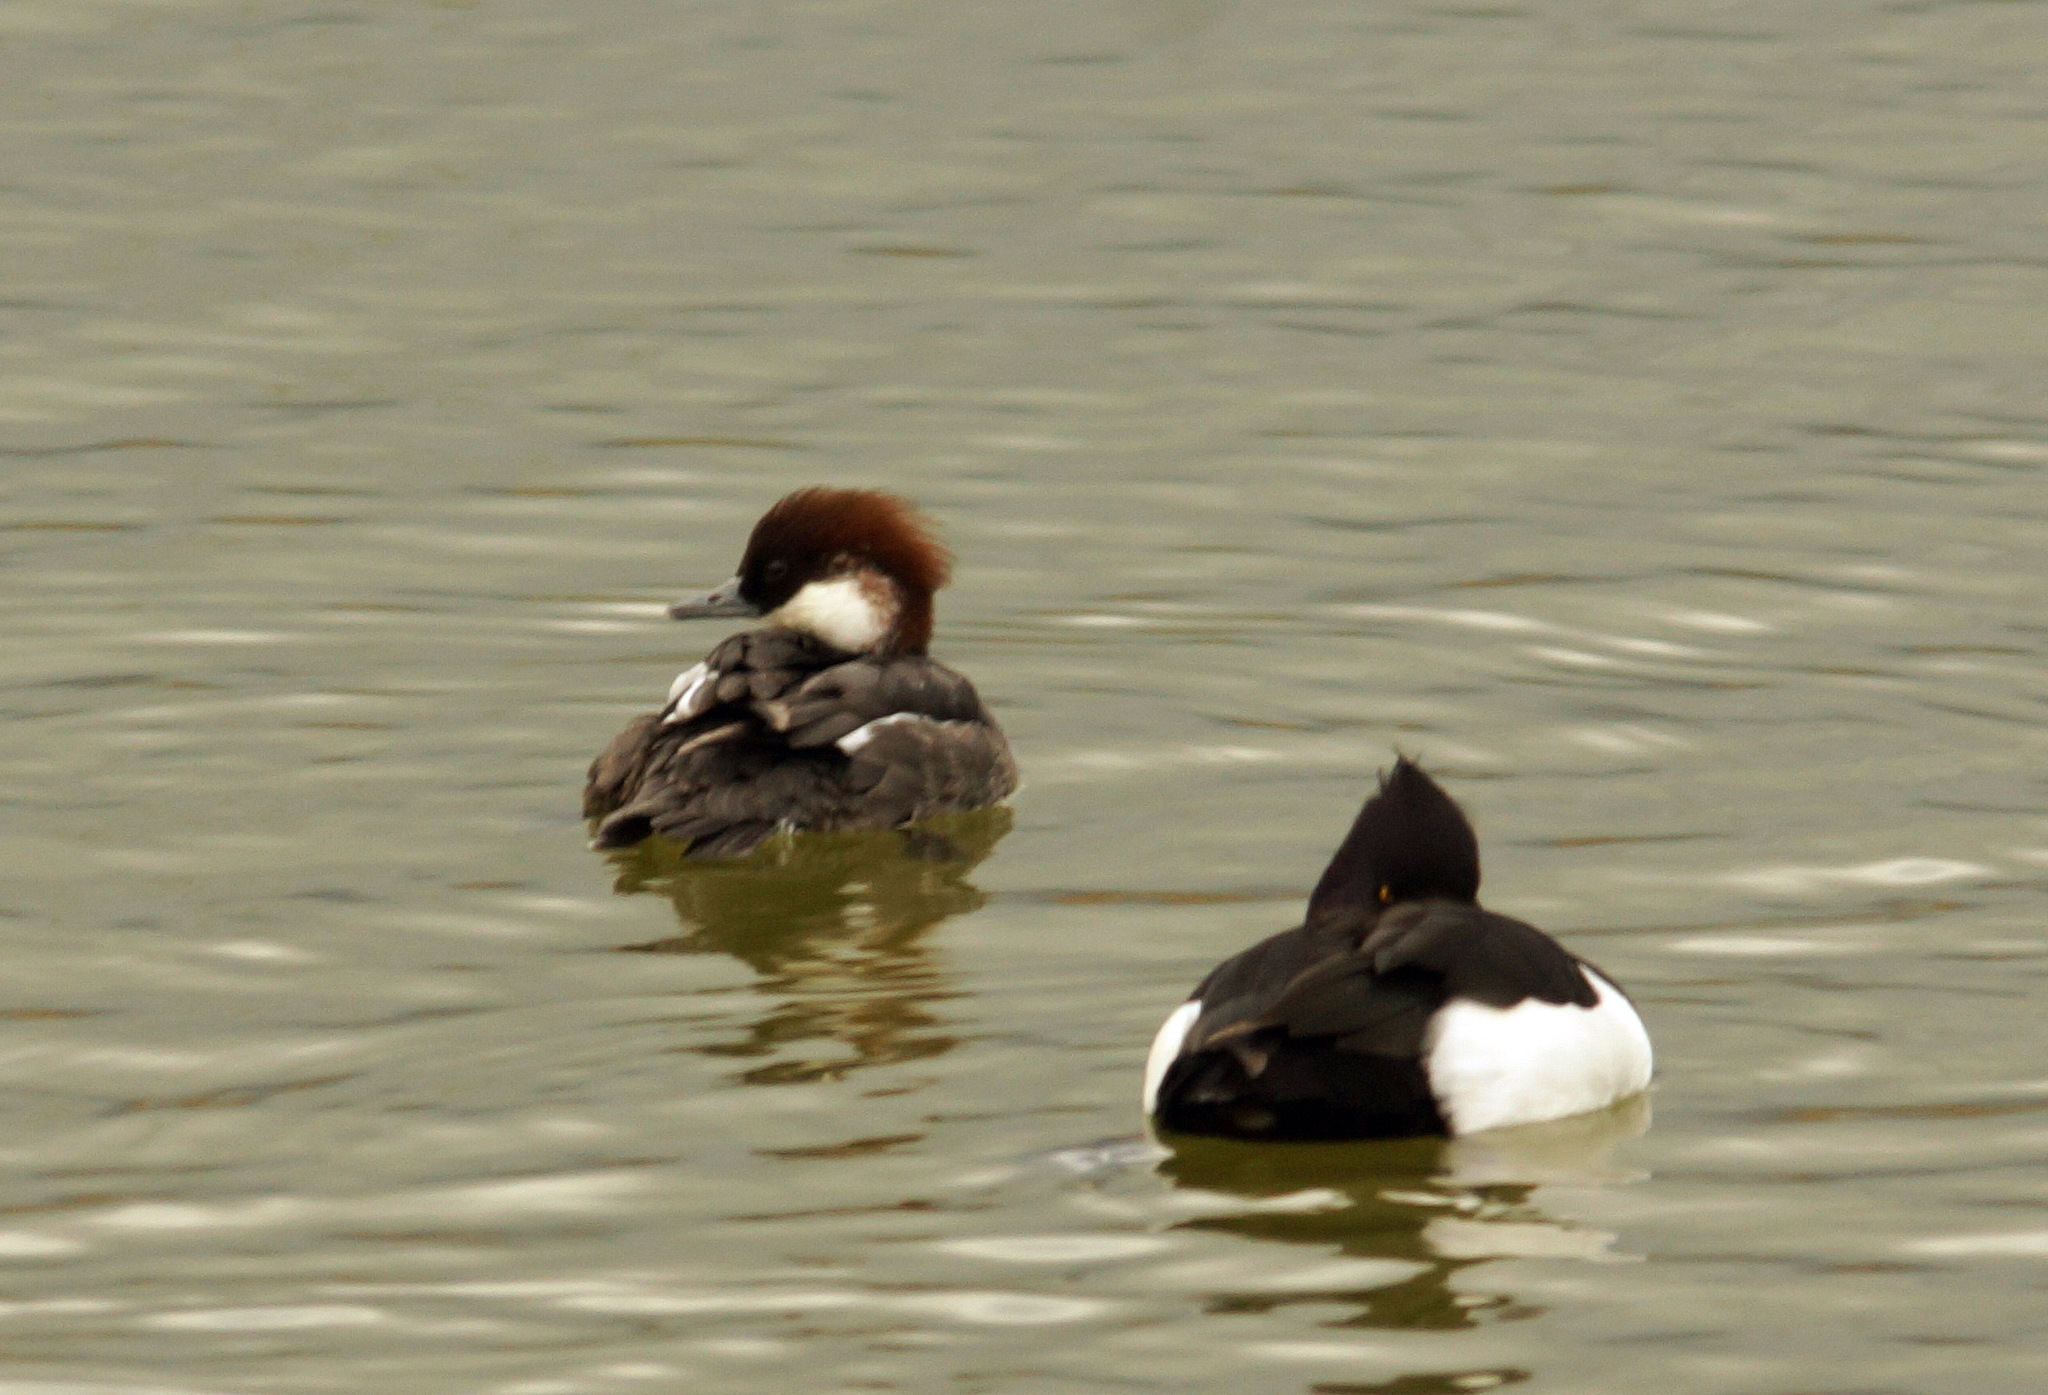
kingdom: Animalia
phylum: Chordata
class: Aves
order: Anseriformes
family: Anatidae
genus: Aythya
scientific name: Aythya fuligula
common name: Tufted duck
